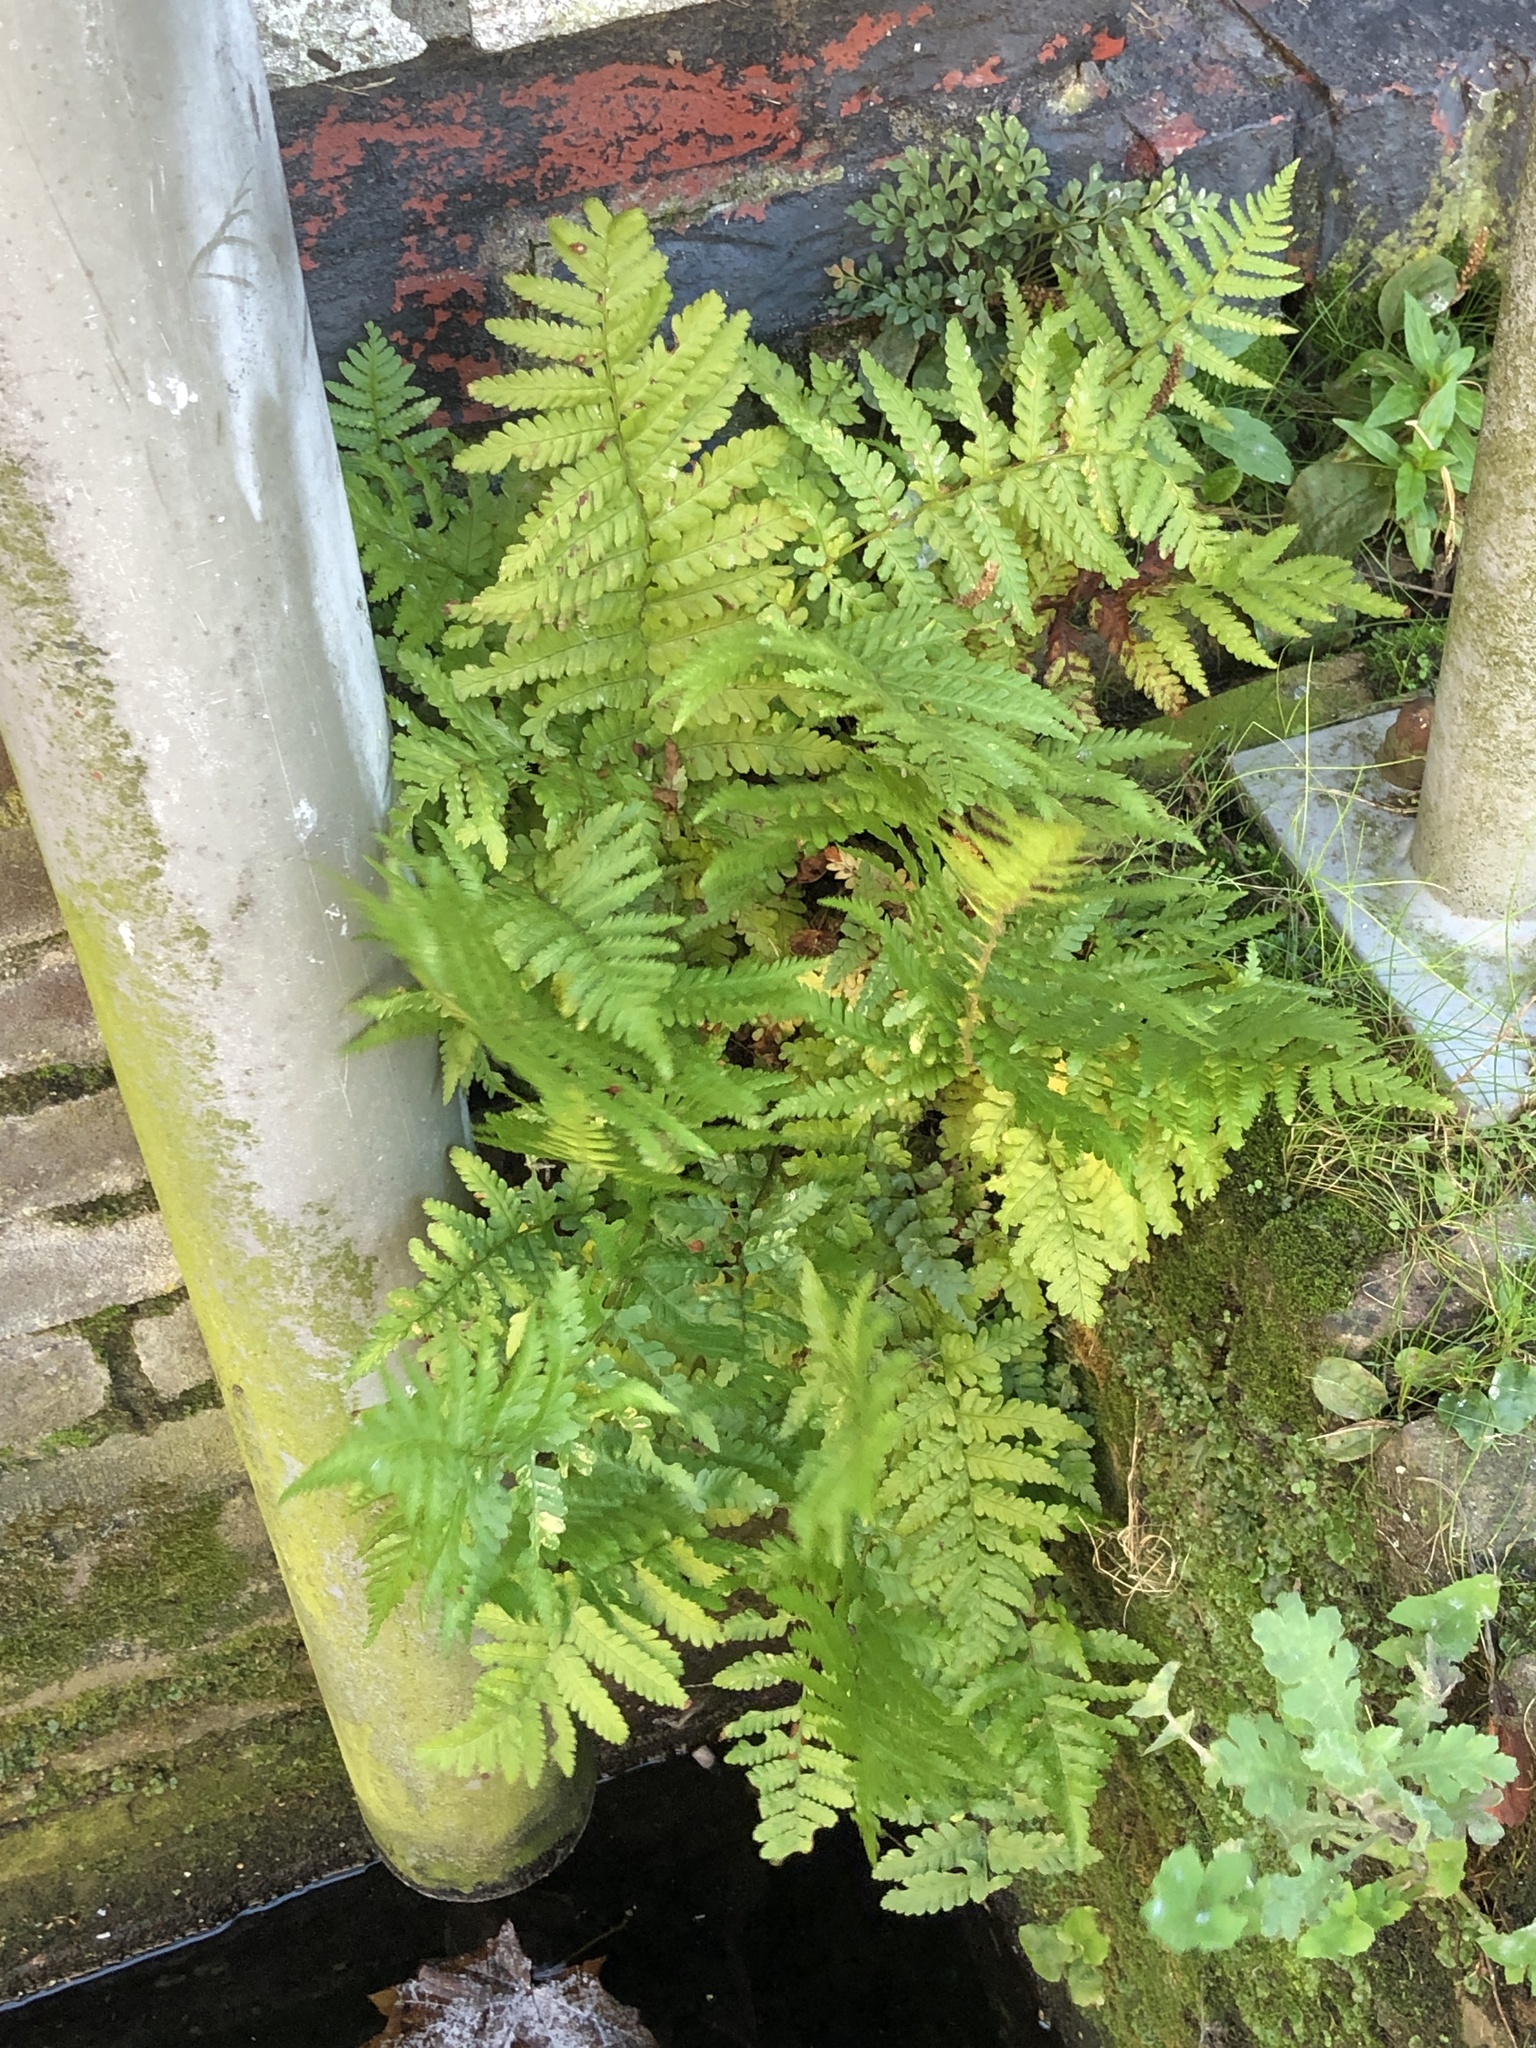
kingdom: Plantae
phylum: Tracheophyta
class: Polypodiopsida
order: Polypodiales
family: Dryopteridaceae
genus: Dryopteris
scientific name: Dryopteris filix-mas
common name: Male fern
